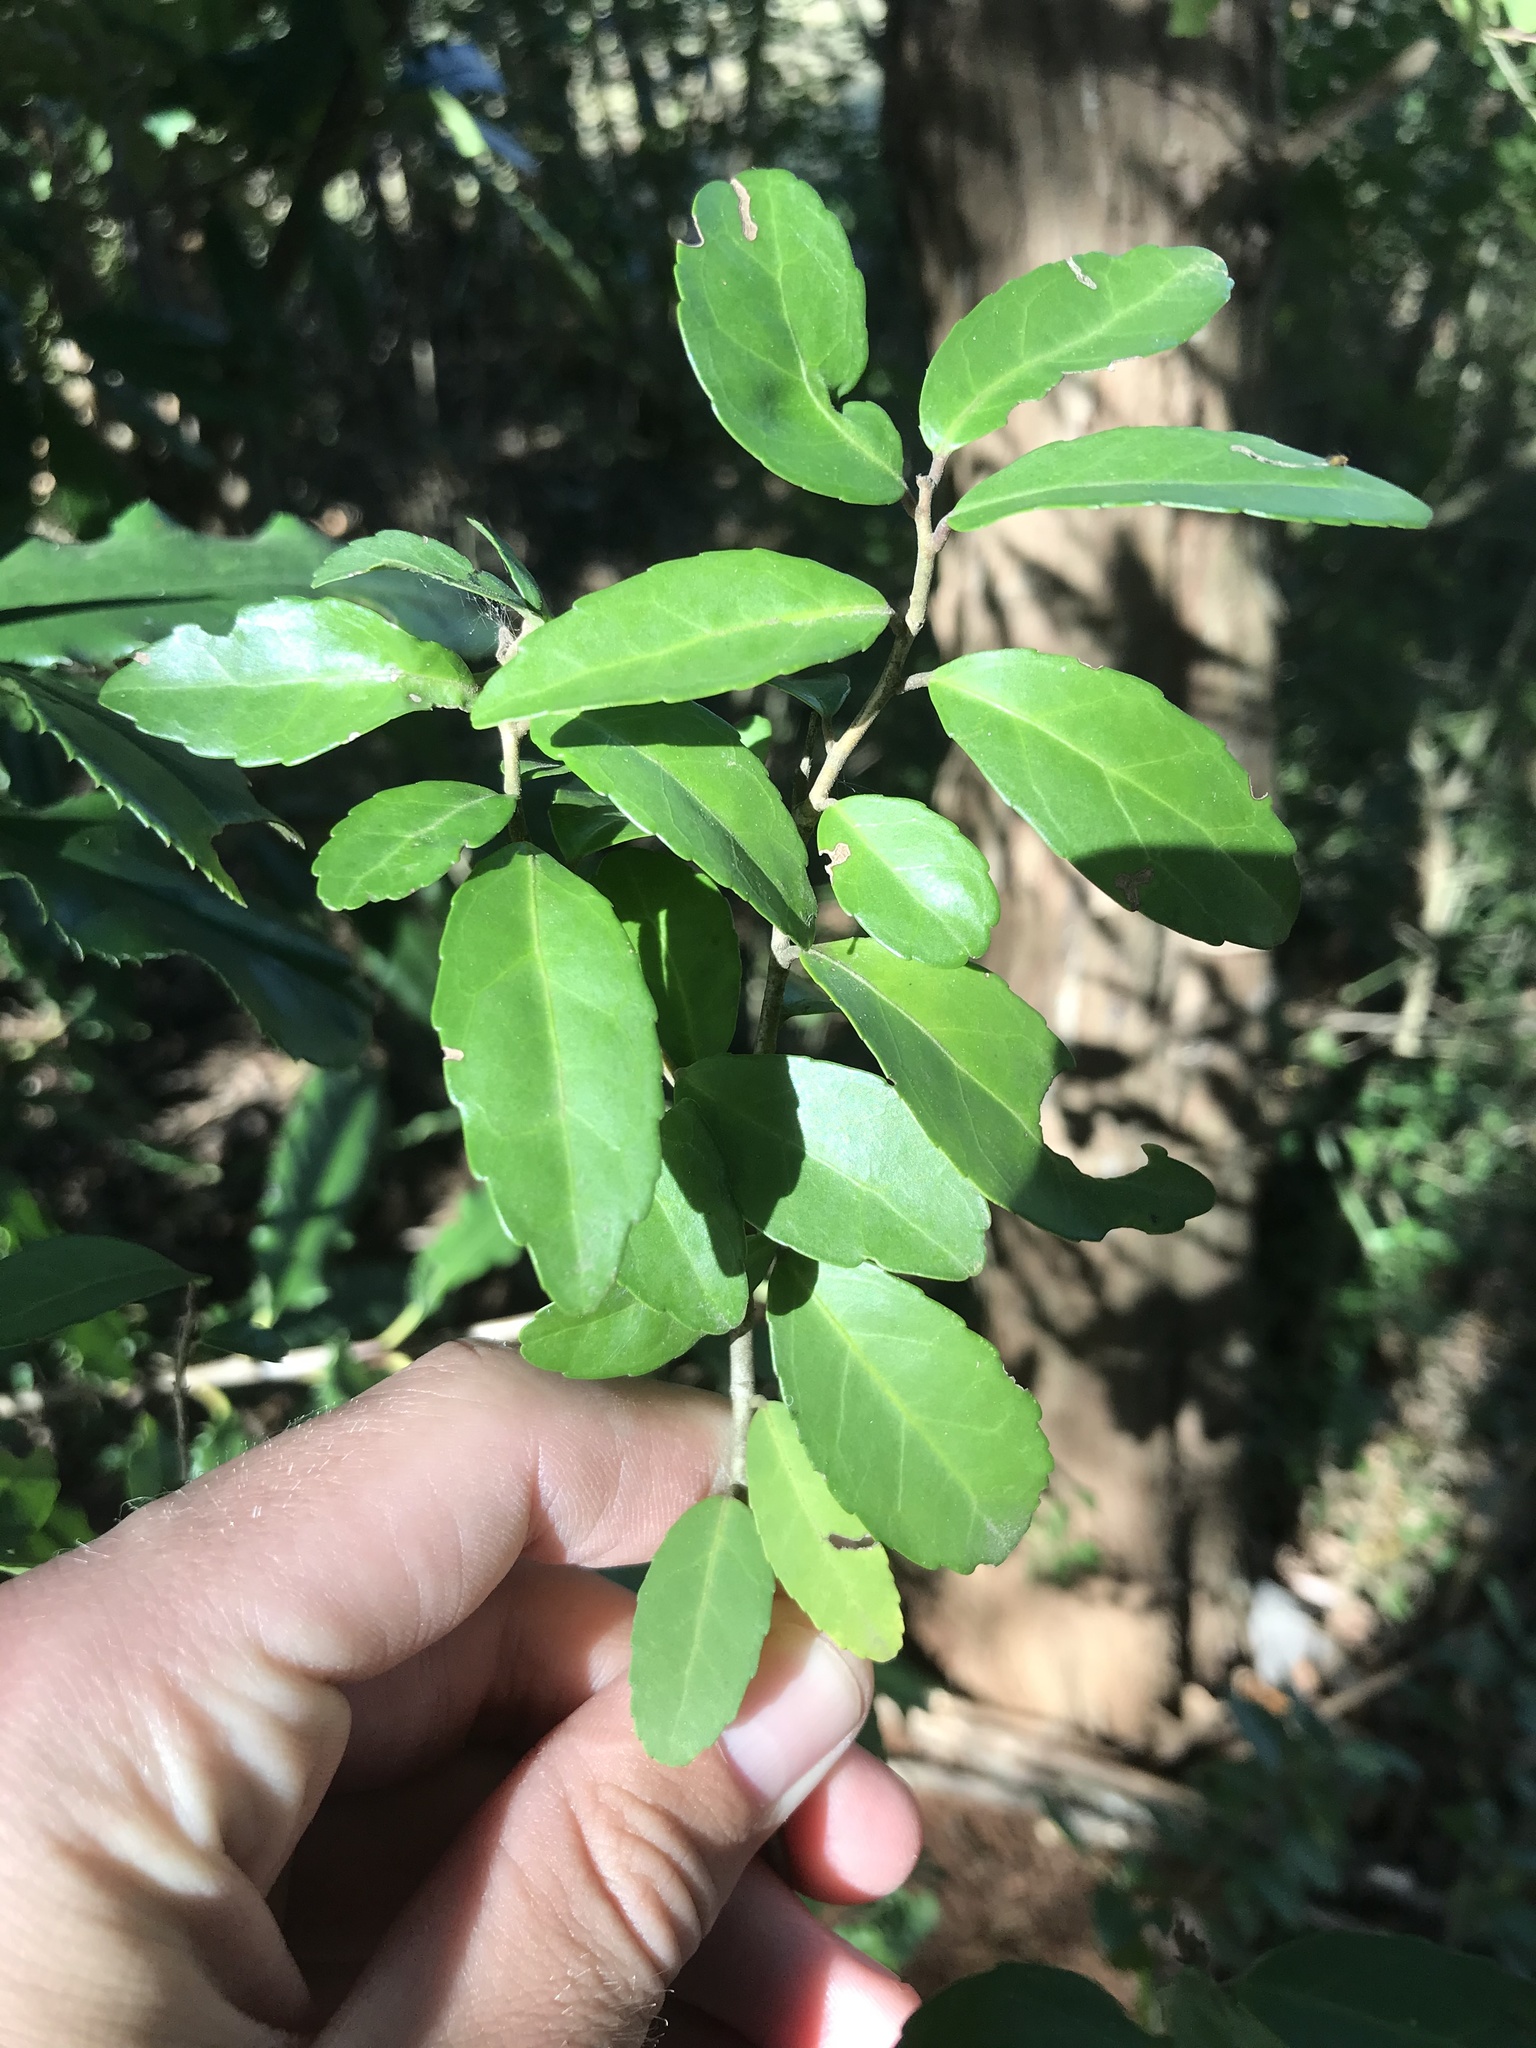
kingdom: Plantae
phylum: Tracheophyta
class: Magnoliopsida
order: Aquifoliales
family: Aquifoliaceae
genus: Ilex
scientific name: Ilex vomitoria
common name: Yaupon holly
